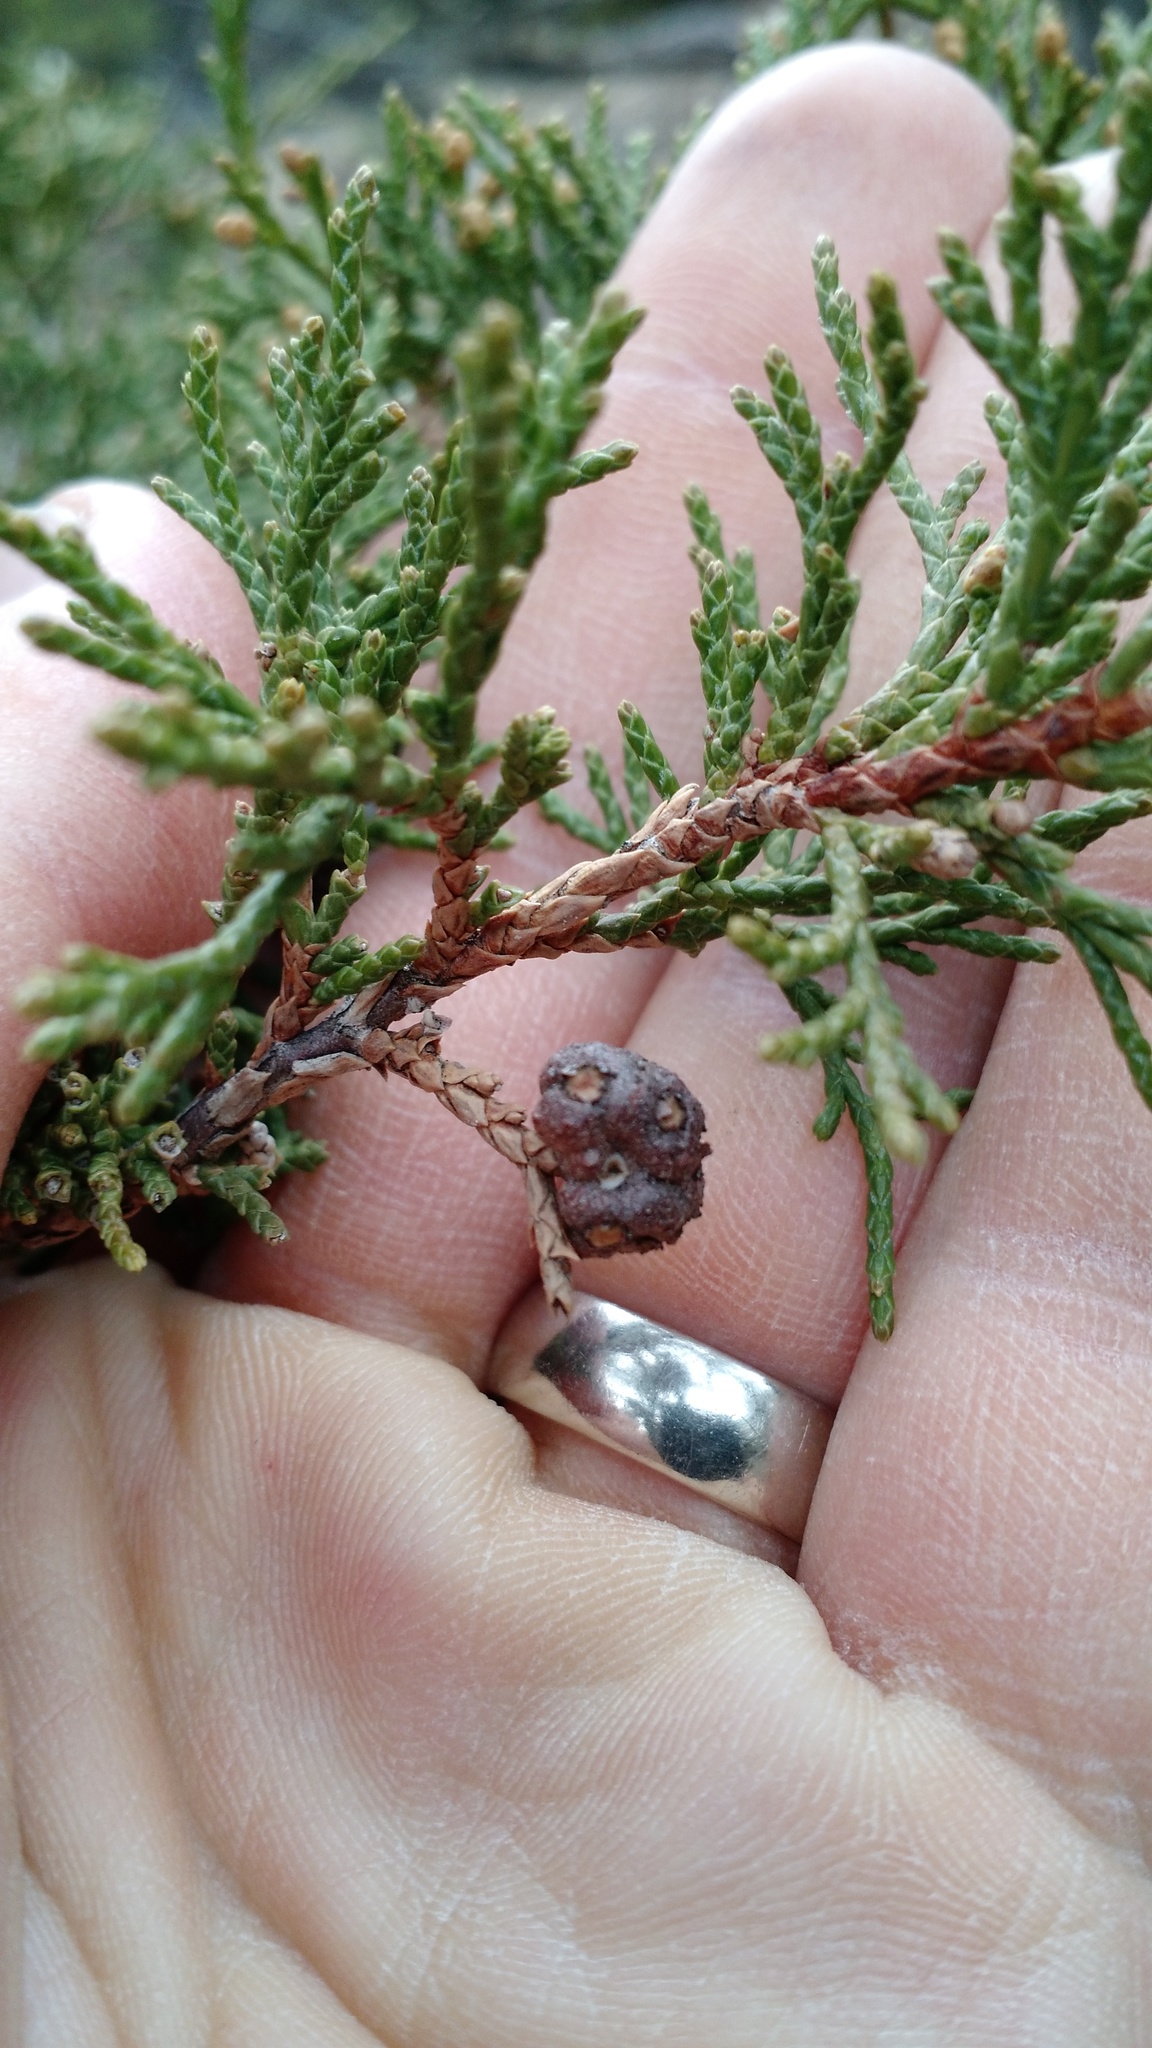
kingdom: Fungi
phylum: Basidiomycota
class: Pucciniomycetes
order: Pucciniales
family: Gymnosporangiaceae
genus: Gymnosporangium
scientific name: Gymnosporangium juniperi-virginianae
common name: Juniper-apple rust
